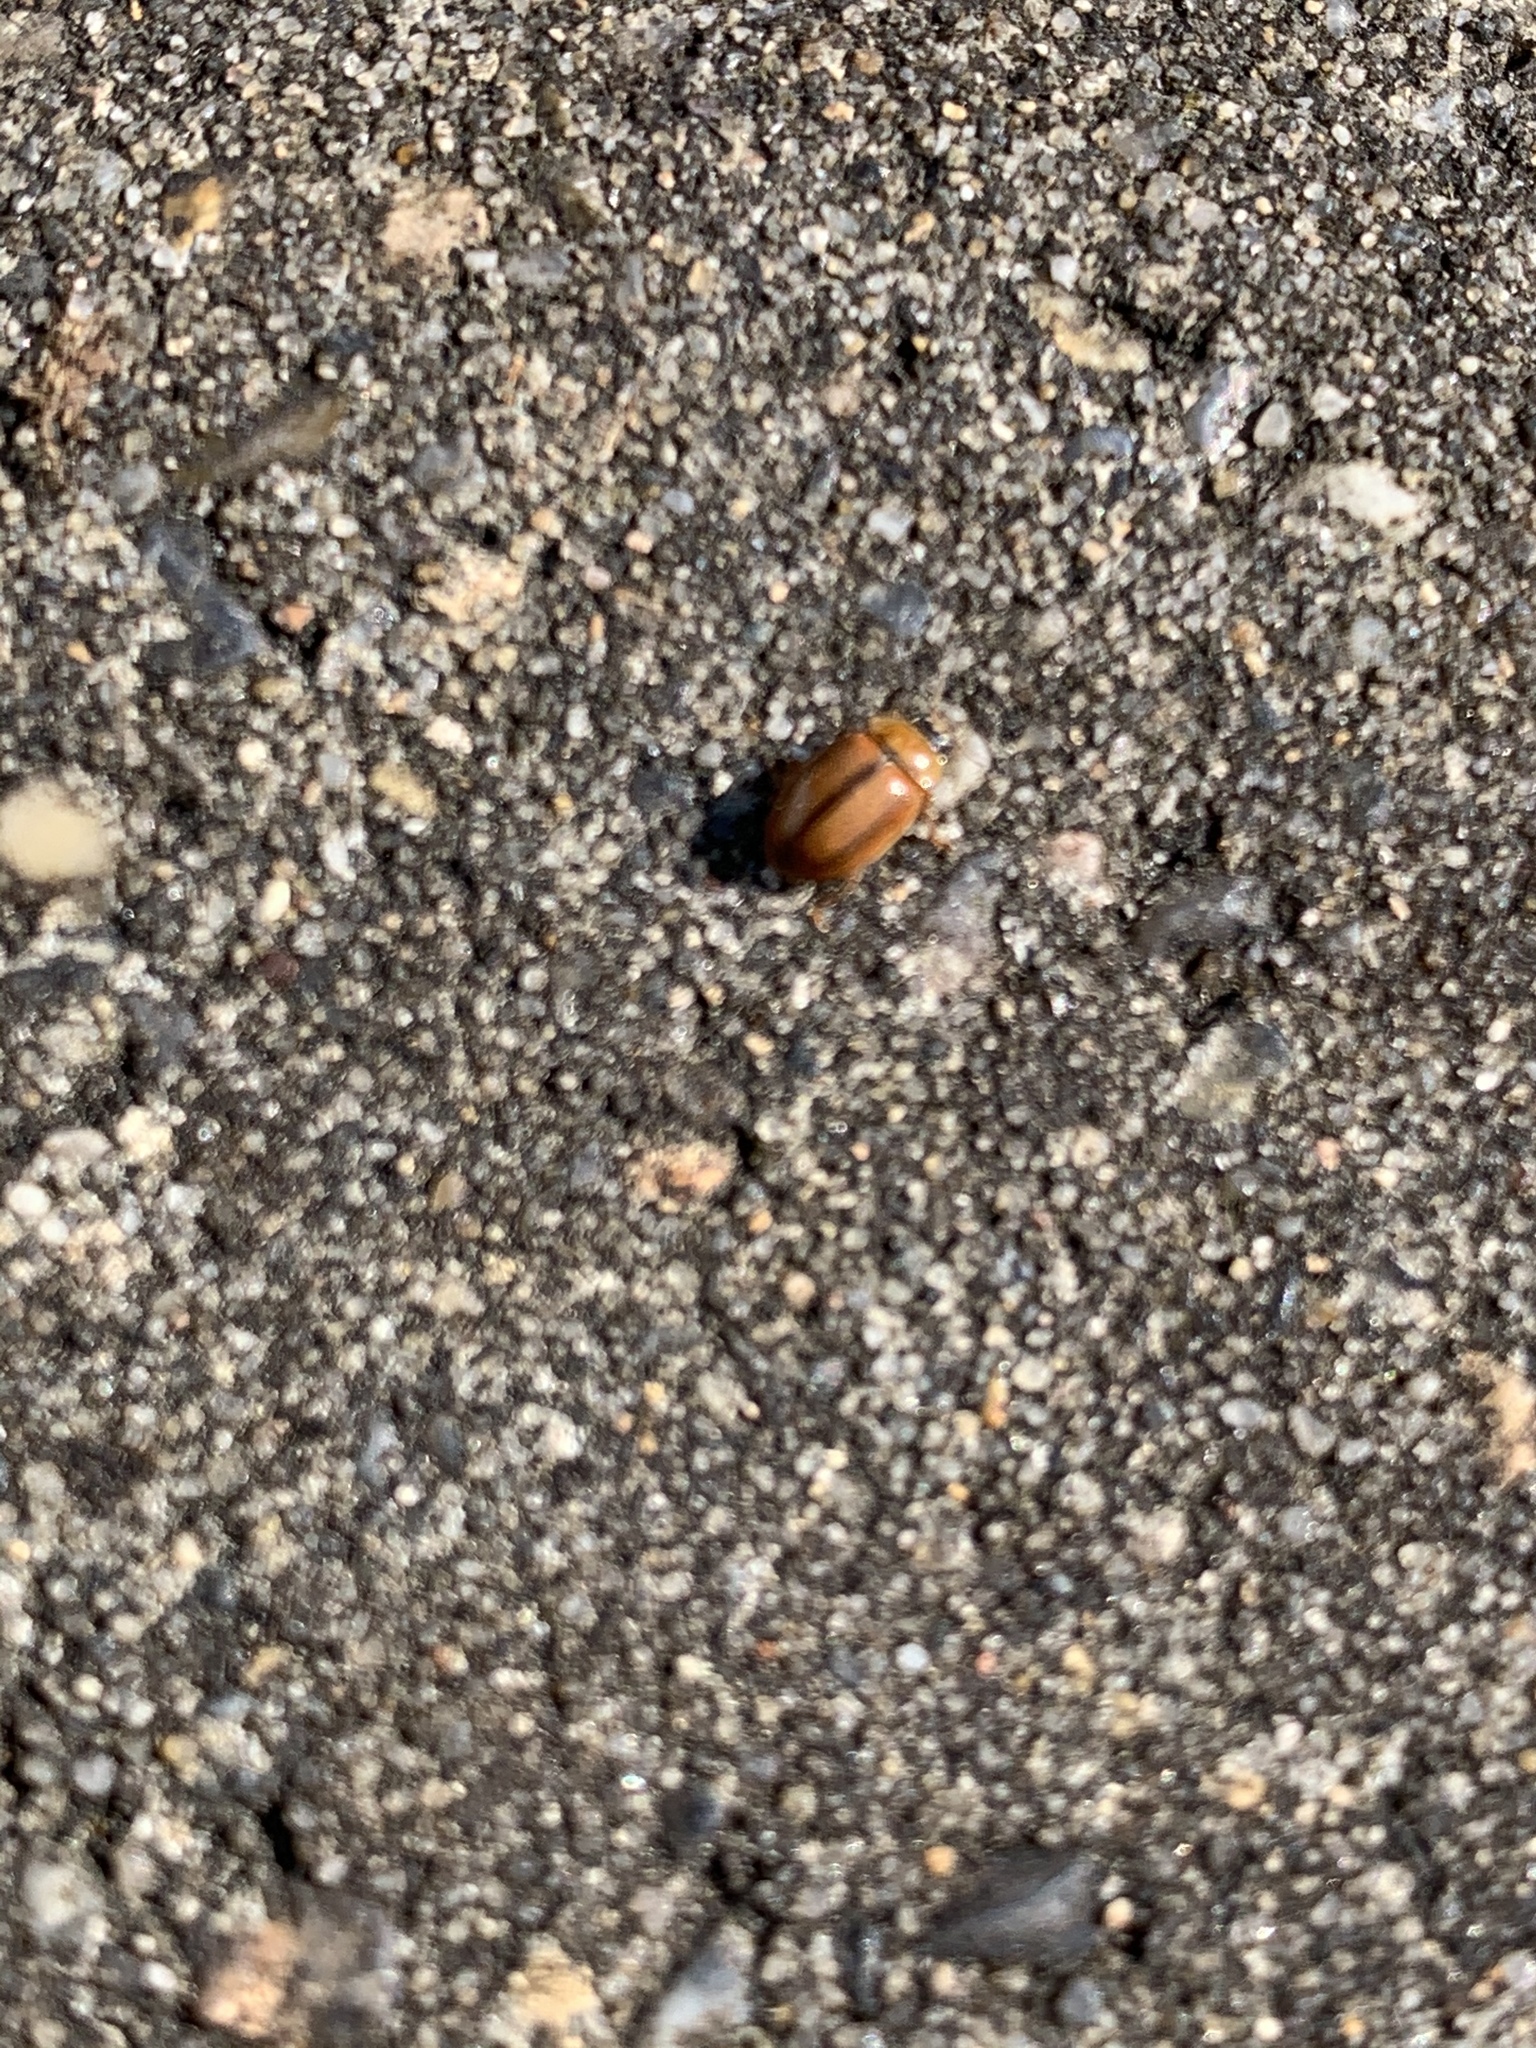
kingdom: Animalia
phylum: Arthropoda
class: Insecta
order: Coleoptera
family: Coccinellidae
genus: Aphidecta
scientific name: Aphidecta obliterata
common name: Larch ladybird
